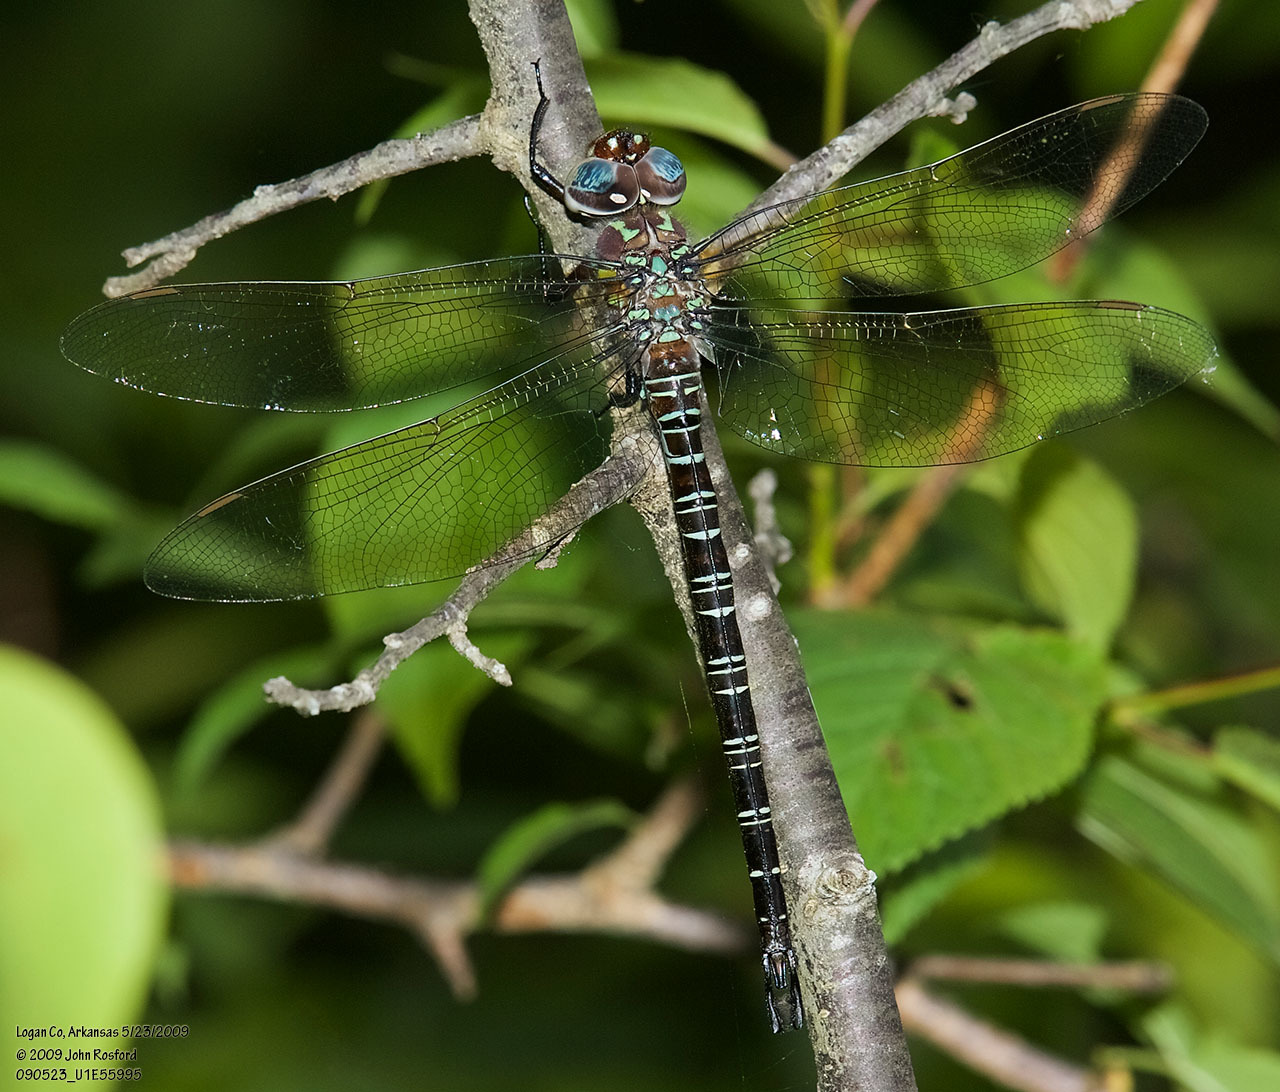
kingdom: Animalia
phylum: Arthropoda
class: Insecta
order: Odonata
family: Aeshnidae
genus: Epiaeschna
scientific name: Epiaeschna heros
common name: Swamp darner
